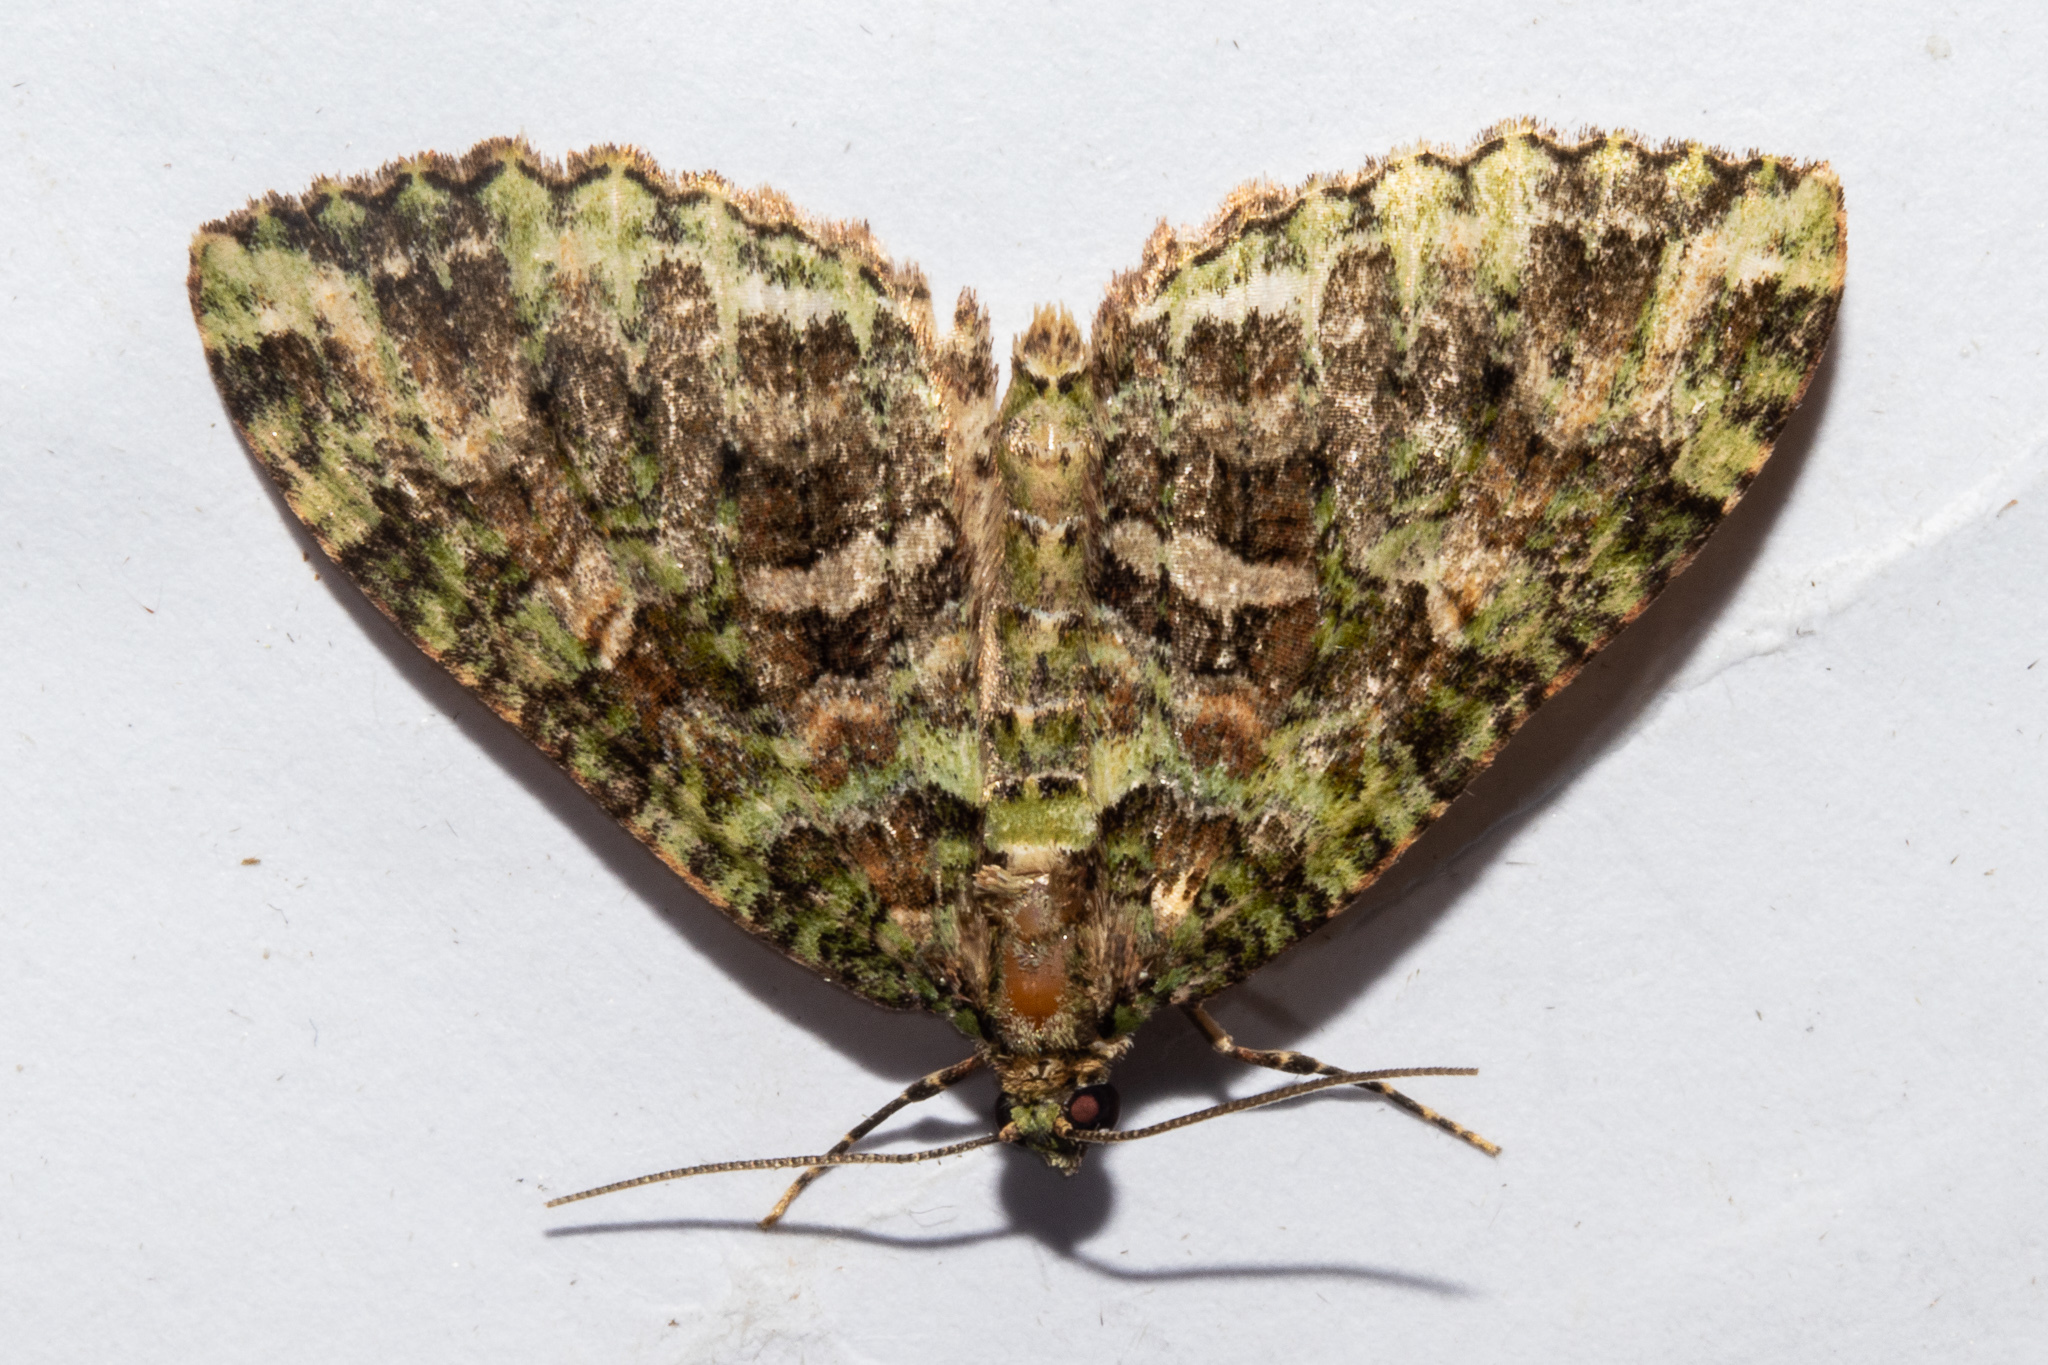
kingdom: Animalia
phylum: Arthropoda
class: Insecta
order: Lepidoptera
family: Geometridae
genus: Austrocidaria
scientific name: Austrocidaria similata
